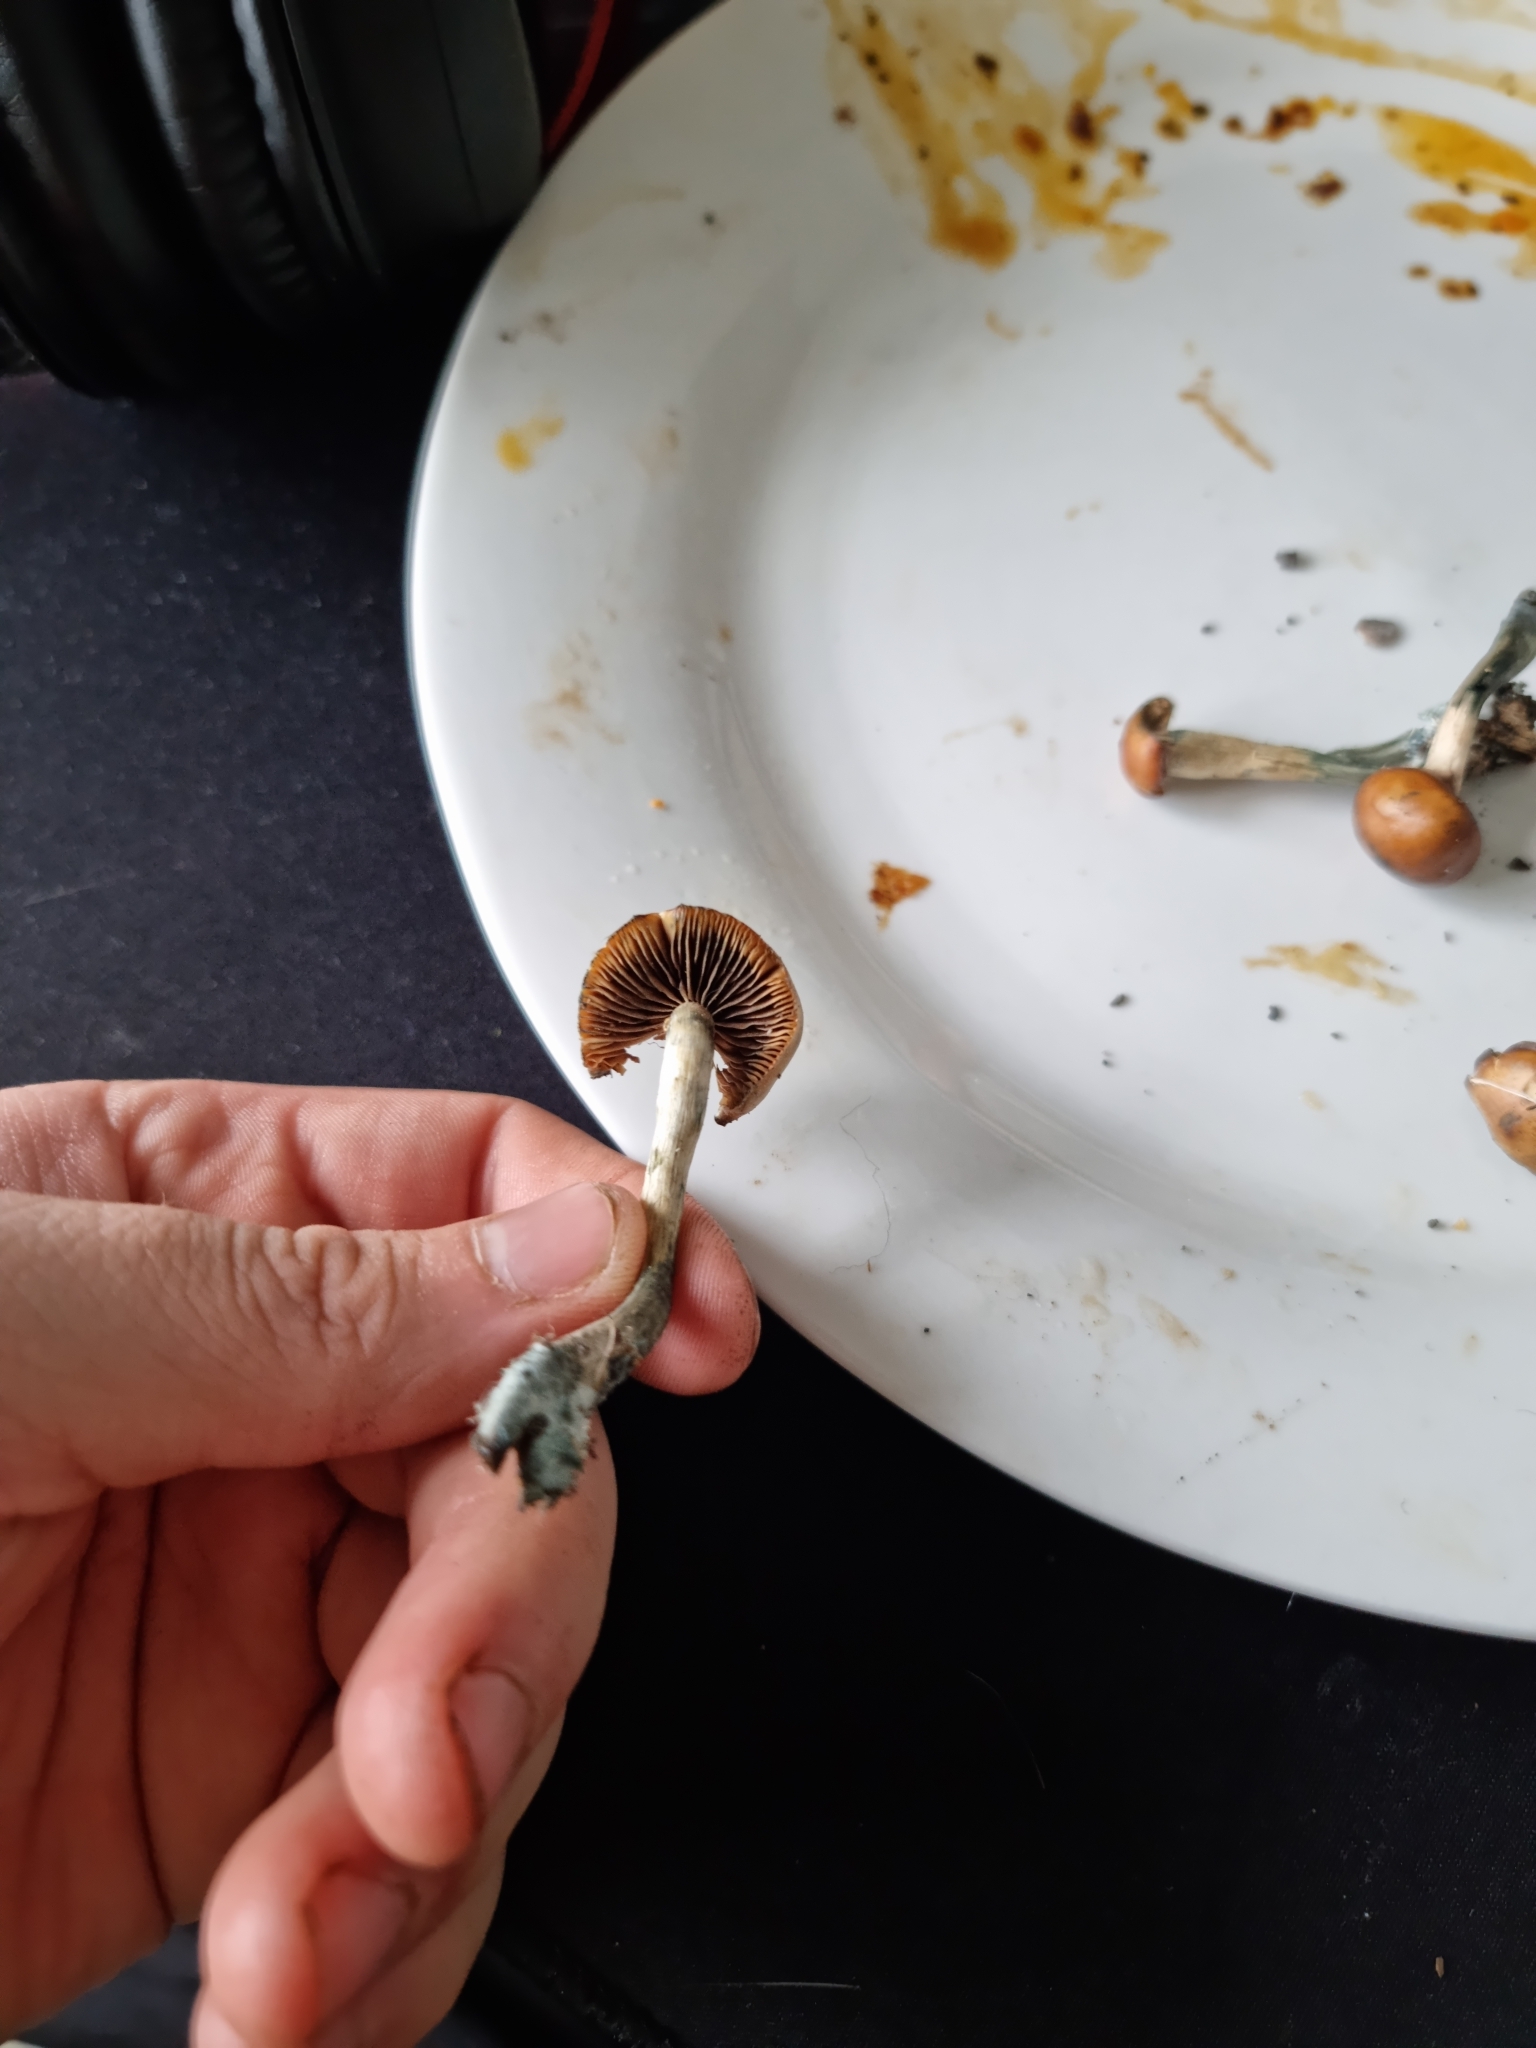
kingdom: Fungi
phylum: Basidiomycota
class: Agaricomycetes
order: Agaricales
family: Hymenogastraceae
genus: Psilocybe
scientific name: Psilocybe subaeruginosa
